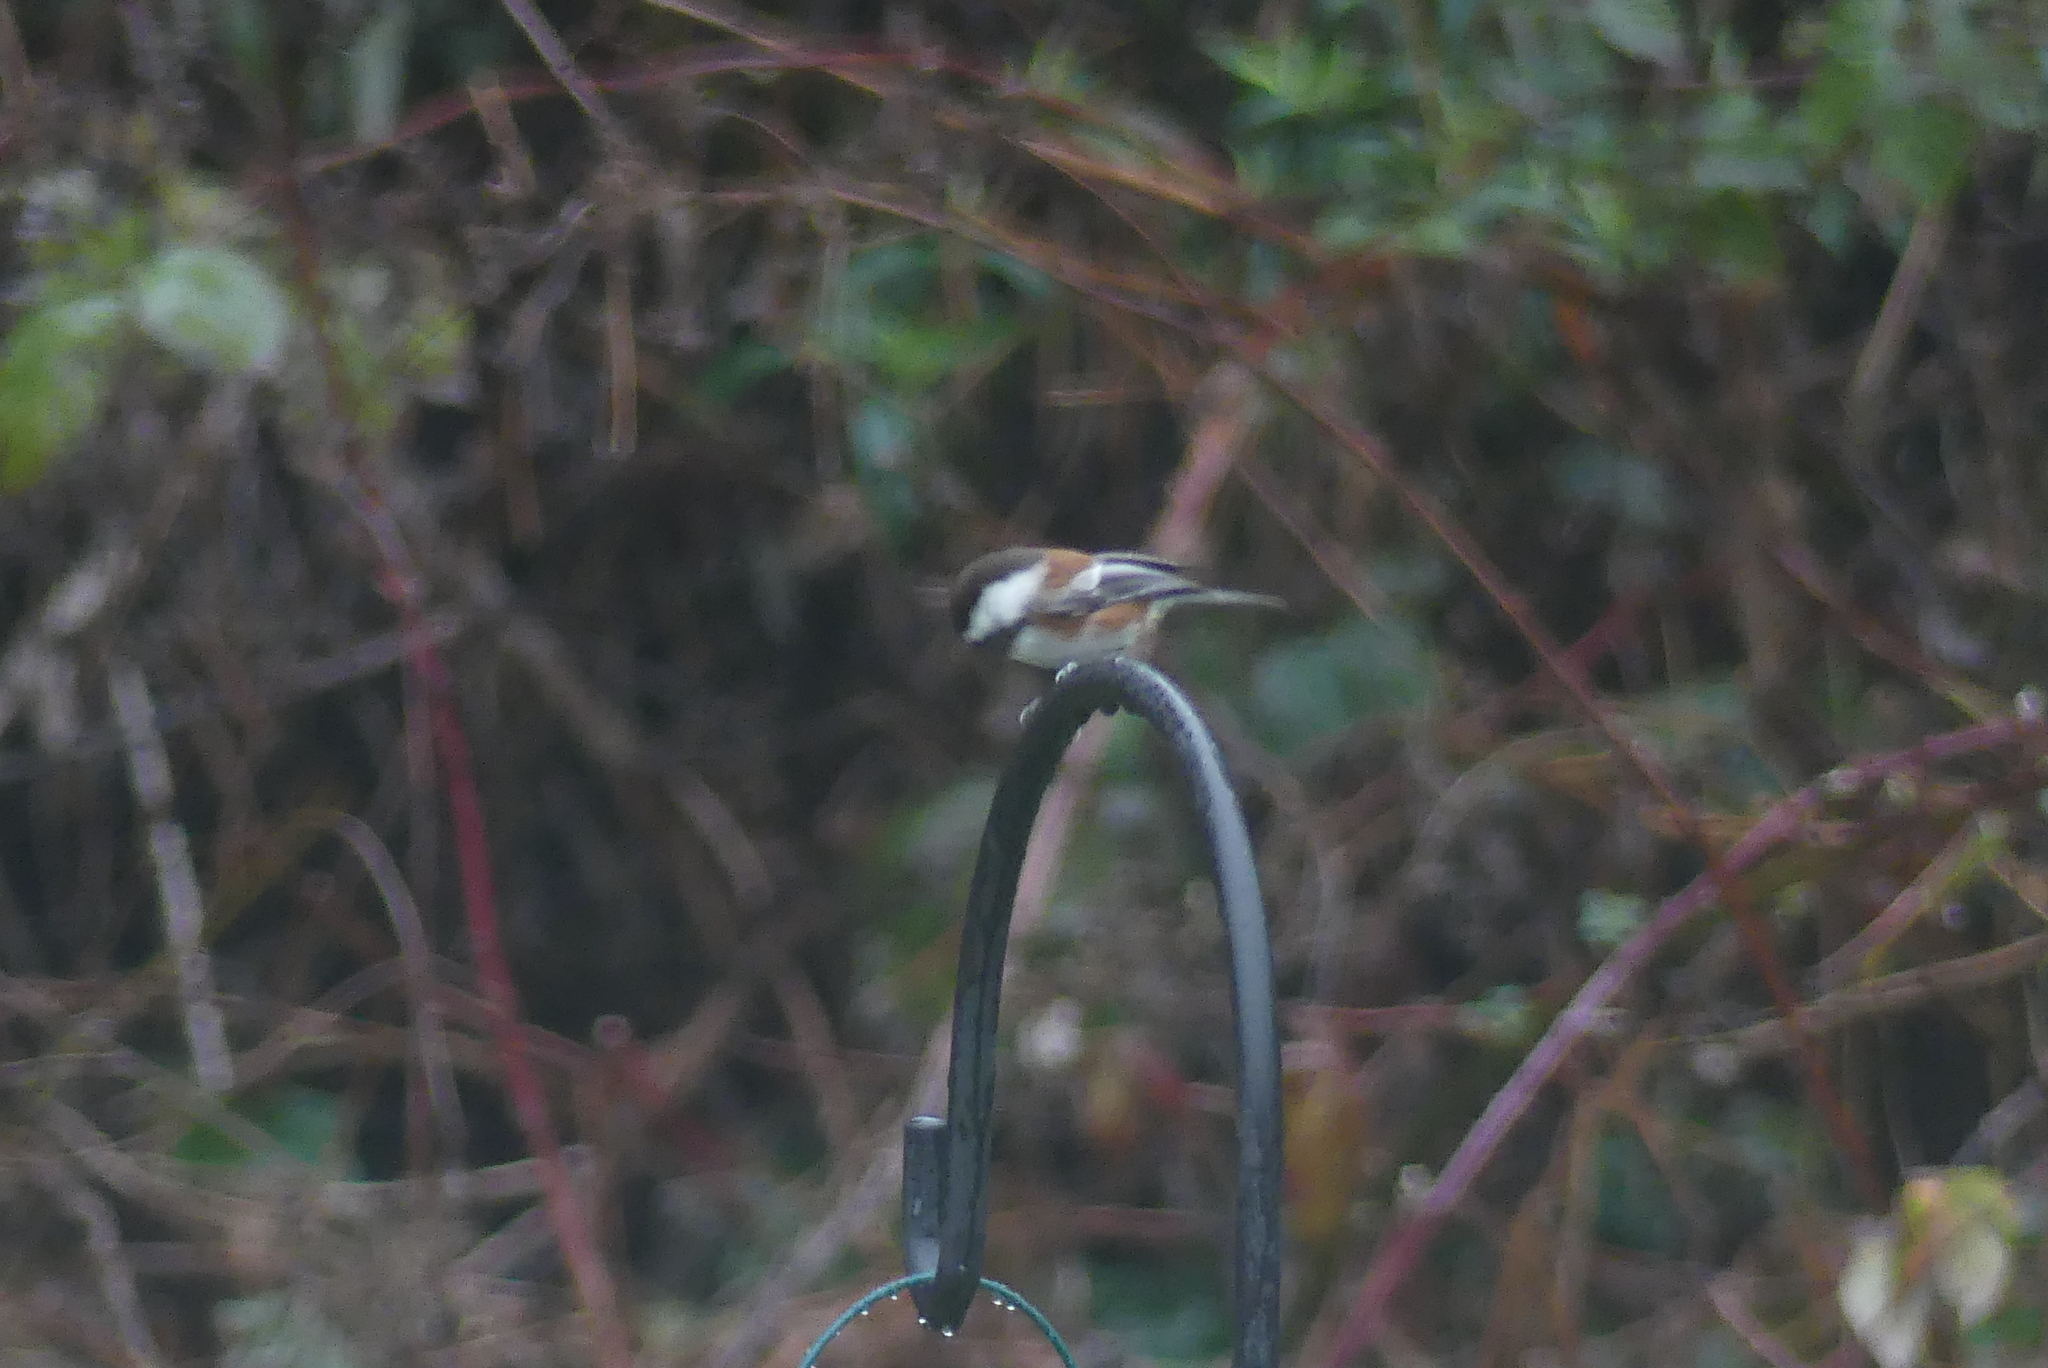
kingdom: Animalia
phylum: Chordata
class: Aves
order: Passeriformes
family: Paridae
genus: Poecile
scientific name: Poecile rufescens
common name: Chestnut-backed chickadee
